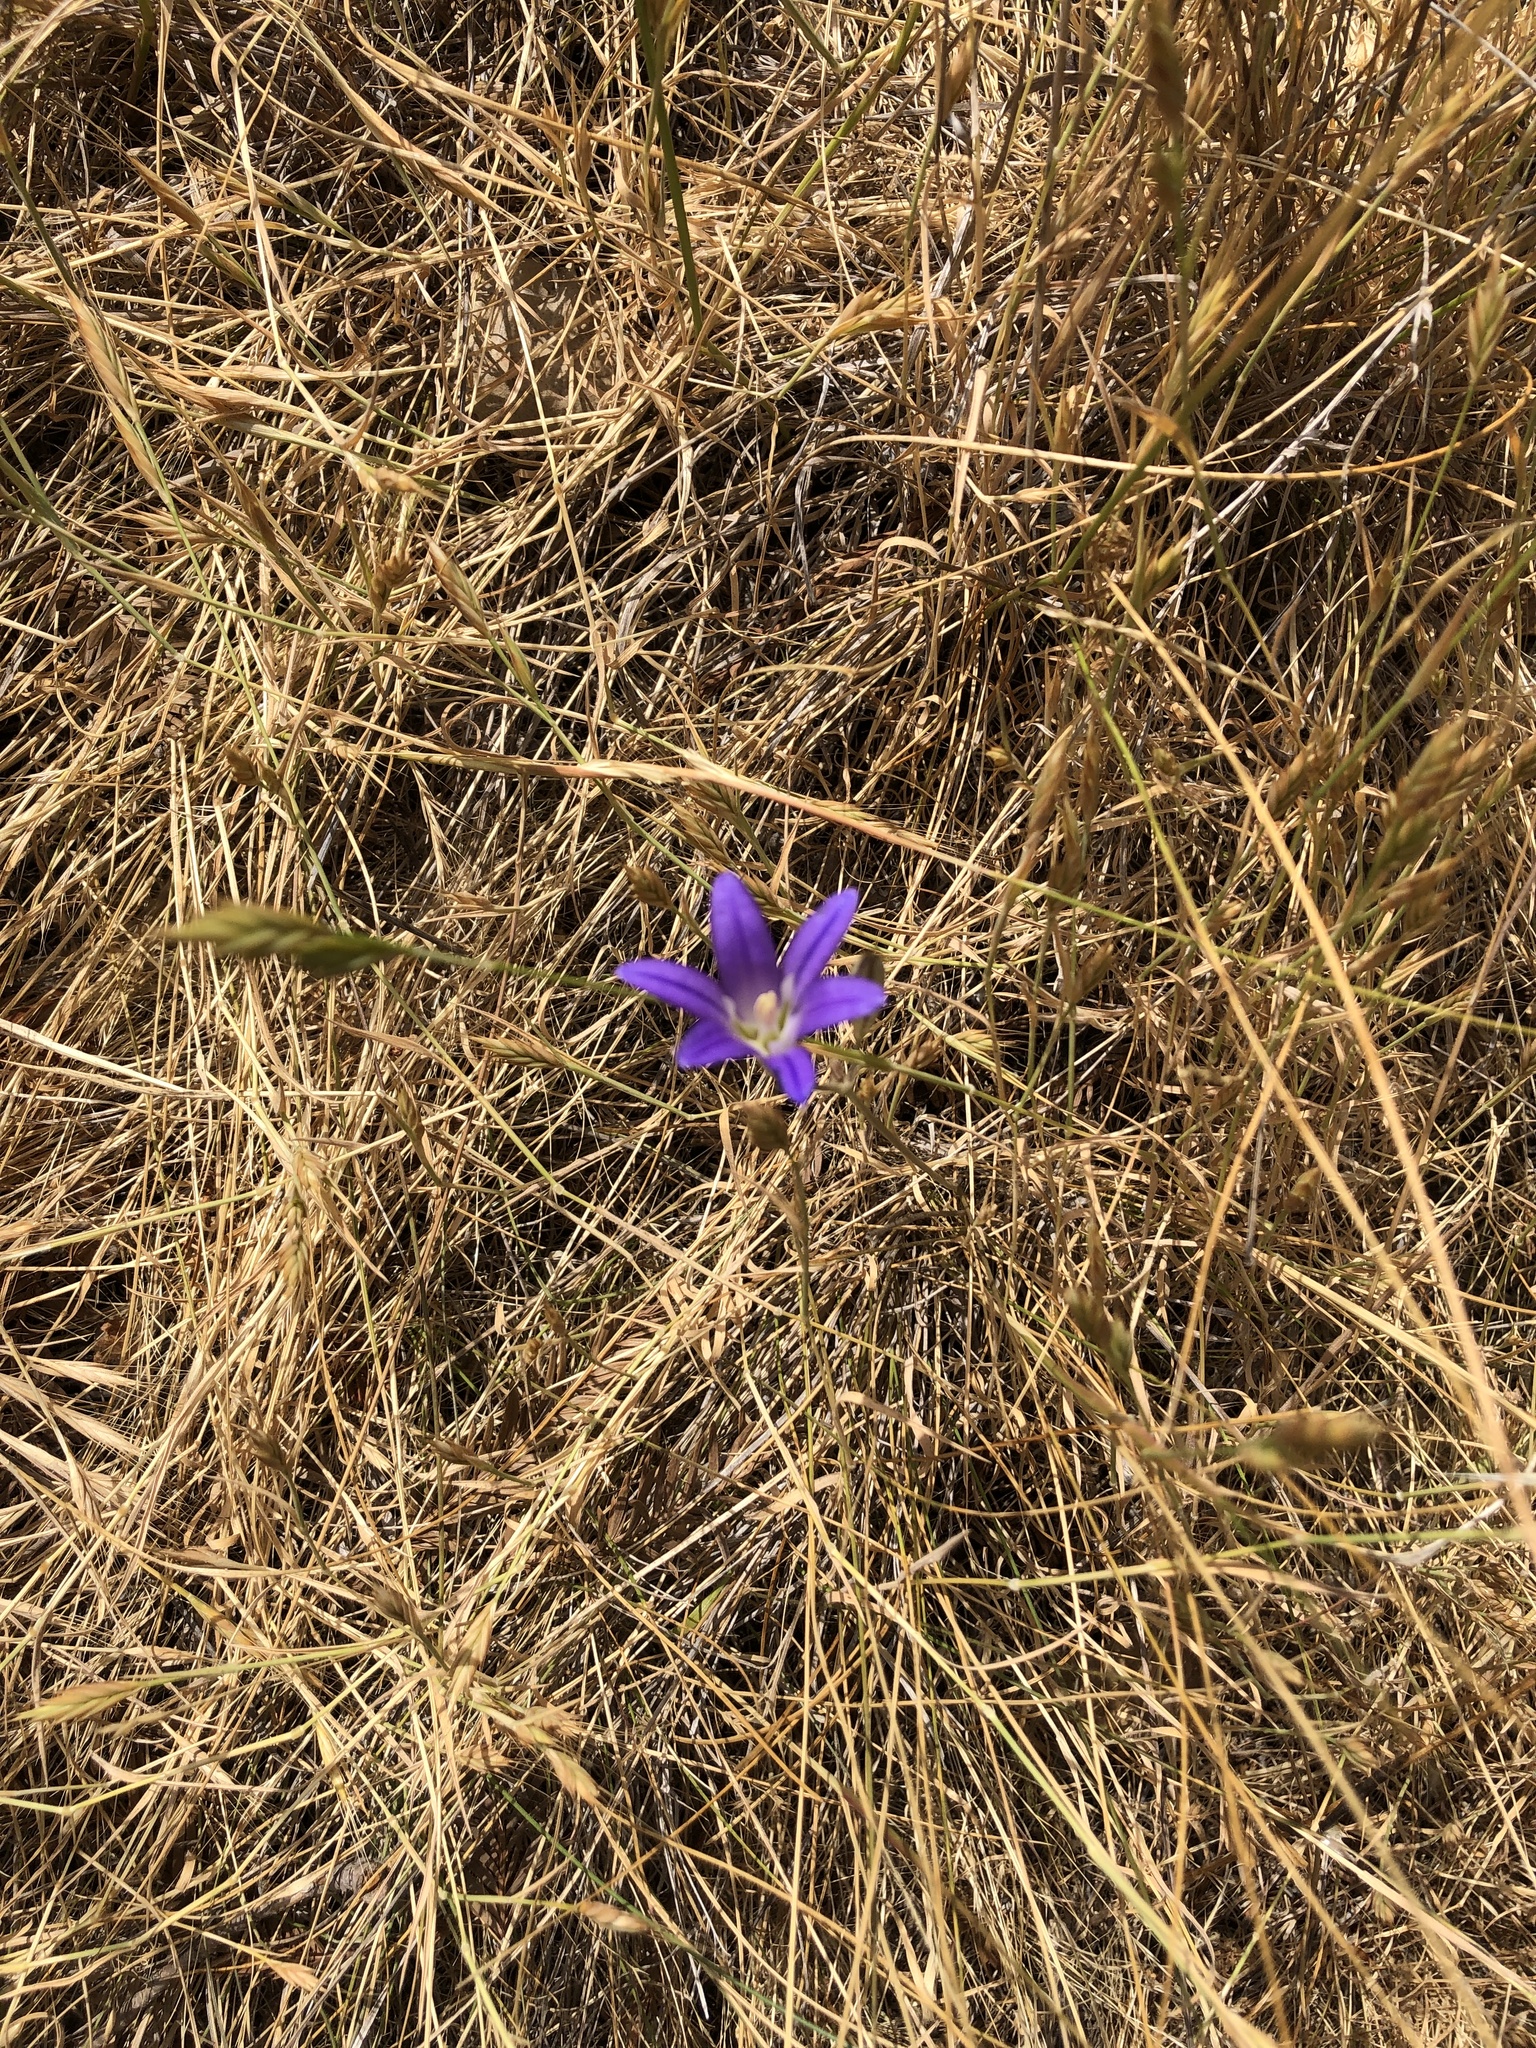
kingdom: Plantae
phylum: Tracheophyta
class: Liliopsida
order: Asparagales
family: Asparagaceae
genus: Brodiaea
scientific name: Brodiaea elegans
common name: Elegant cluster-lily
